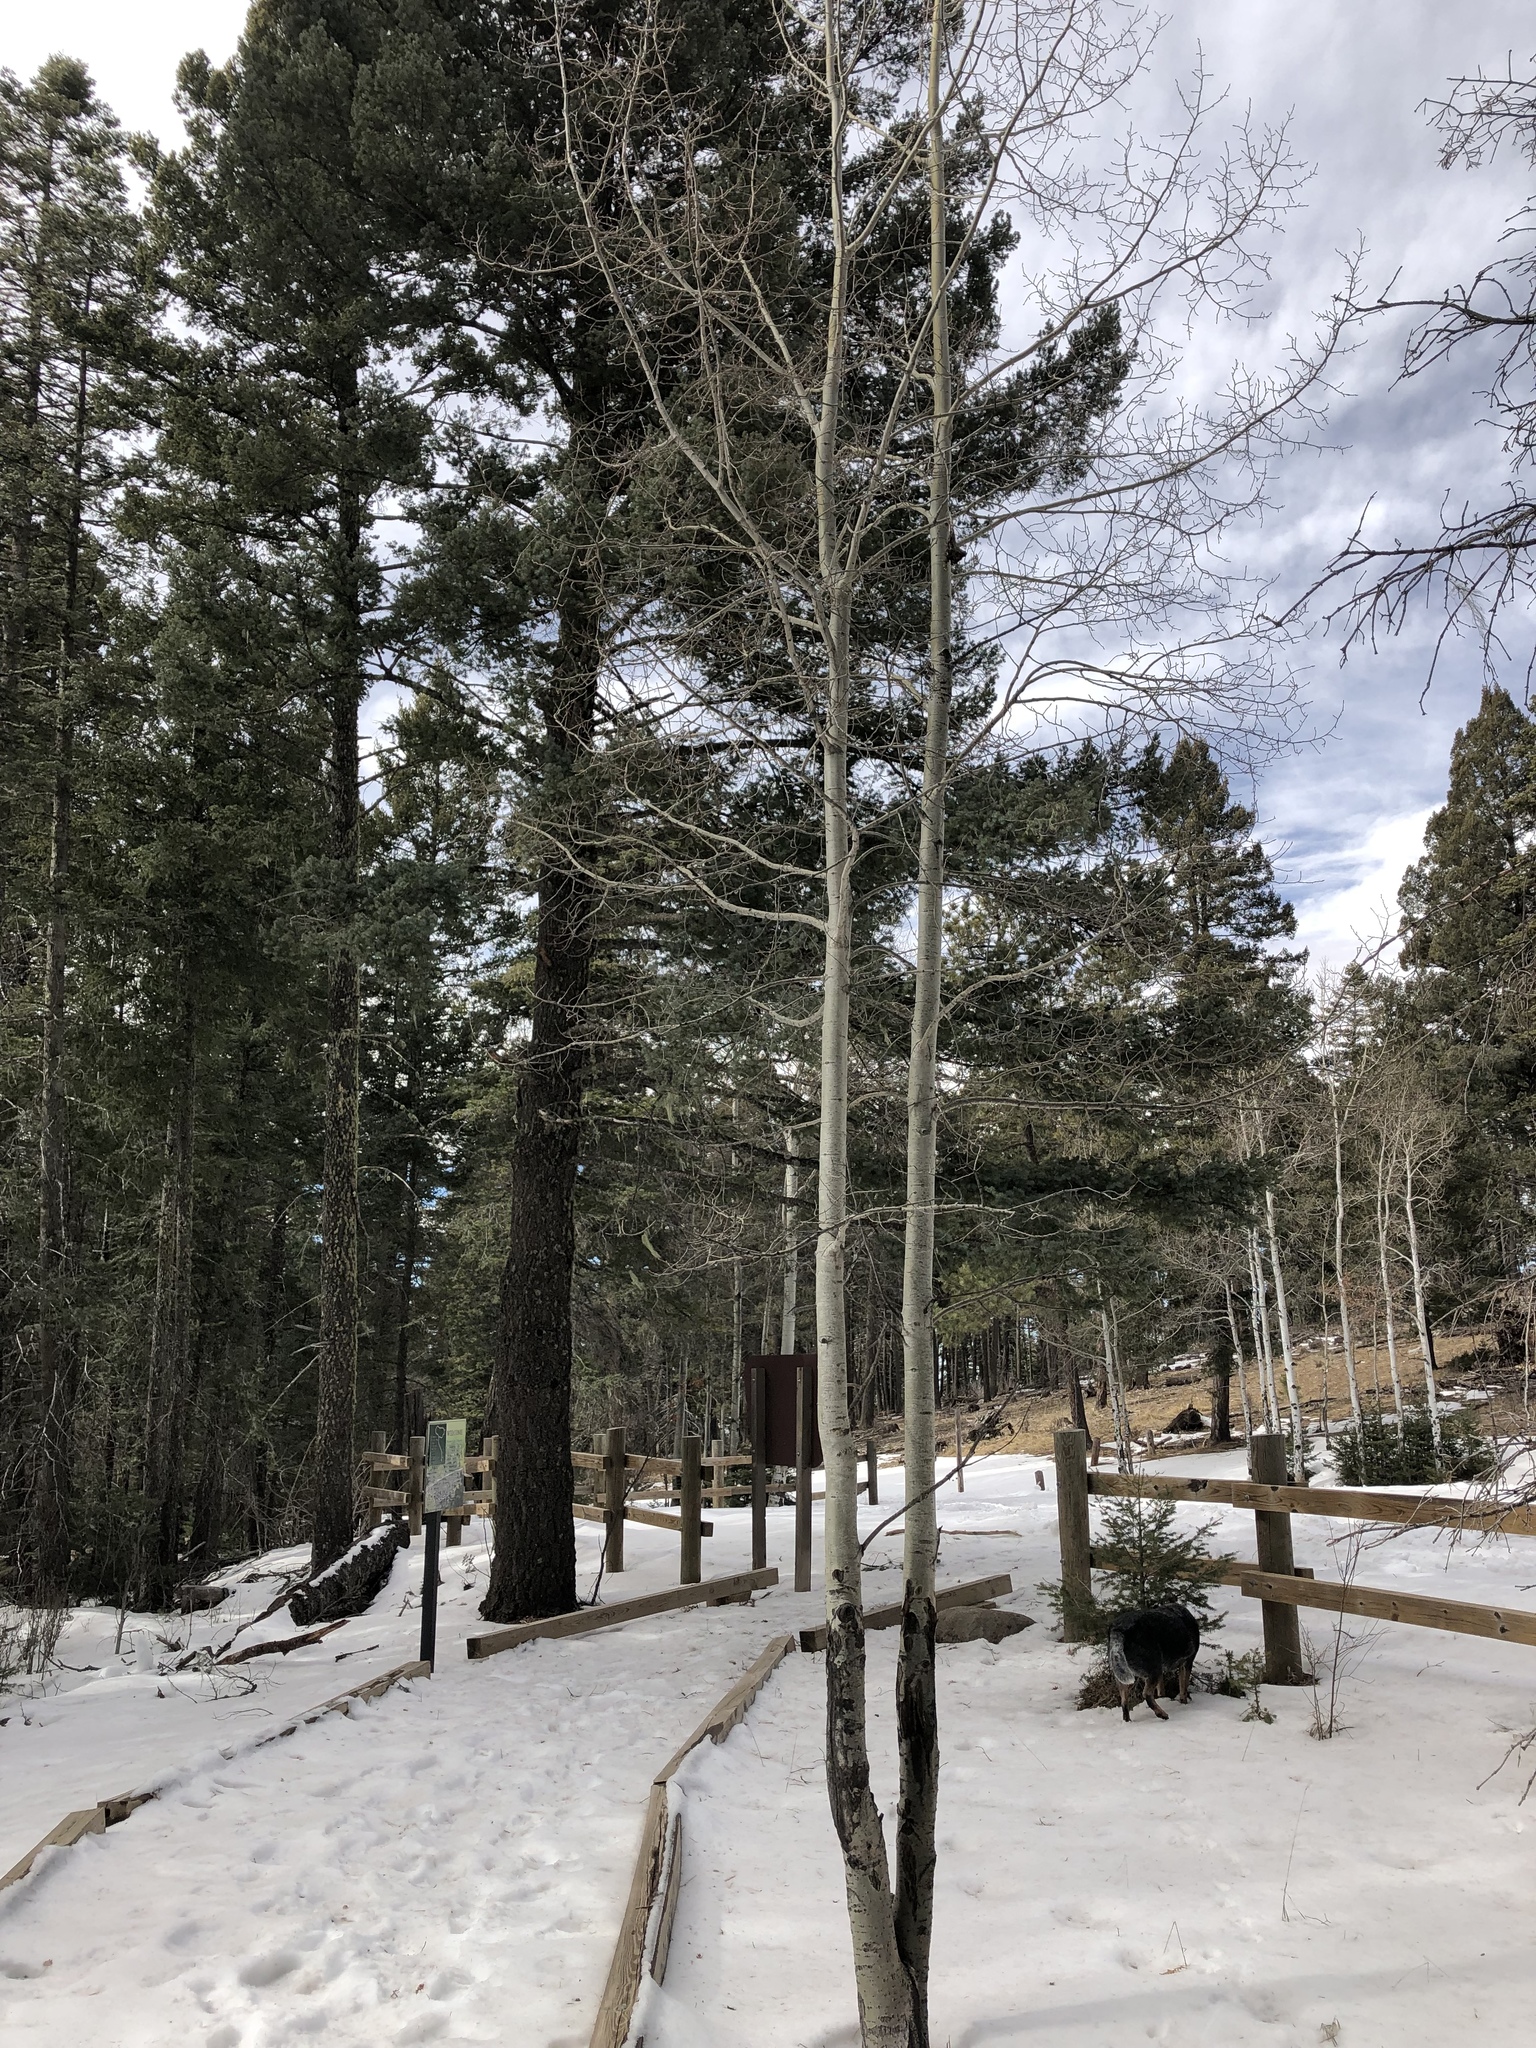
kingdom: Plantae
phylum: Tracheophyta
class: Magnoliopsida
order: Malpighiales
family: Salicaceae
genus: Populus
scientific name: Populus tremuloides
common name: Quaking aspen
